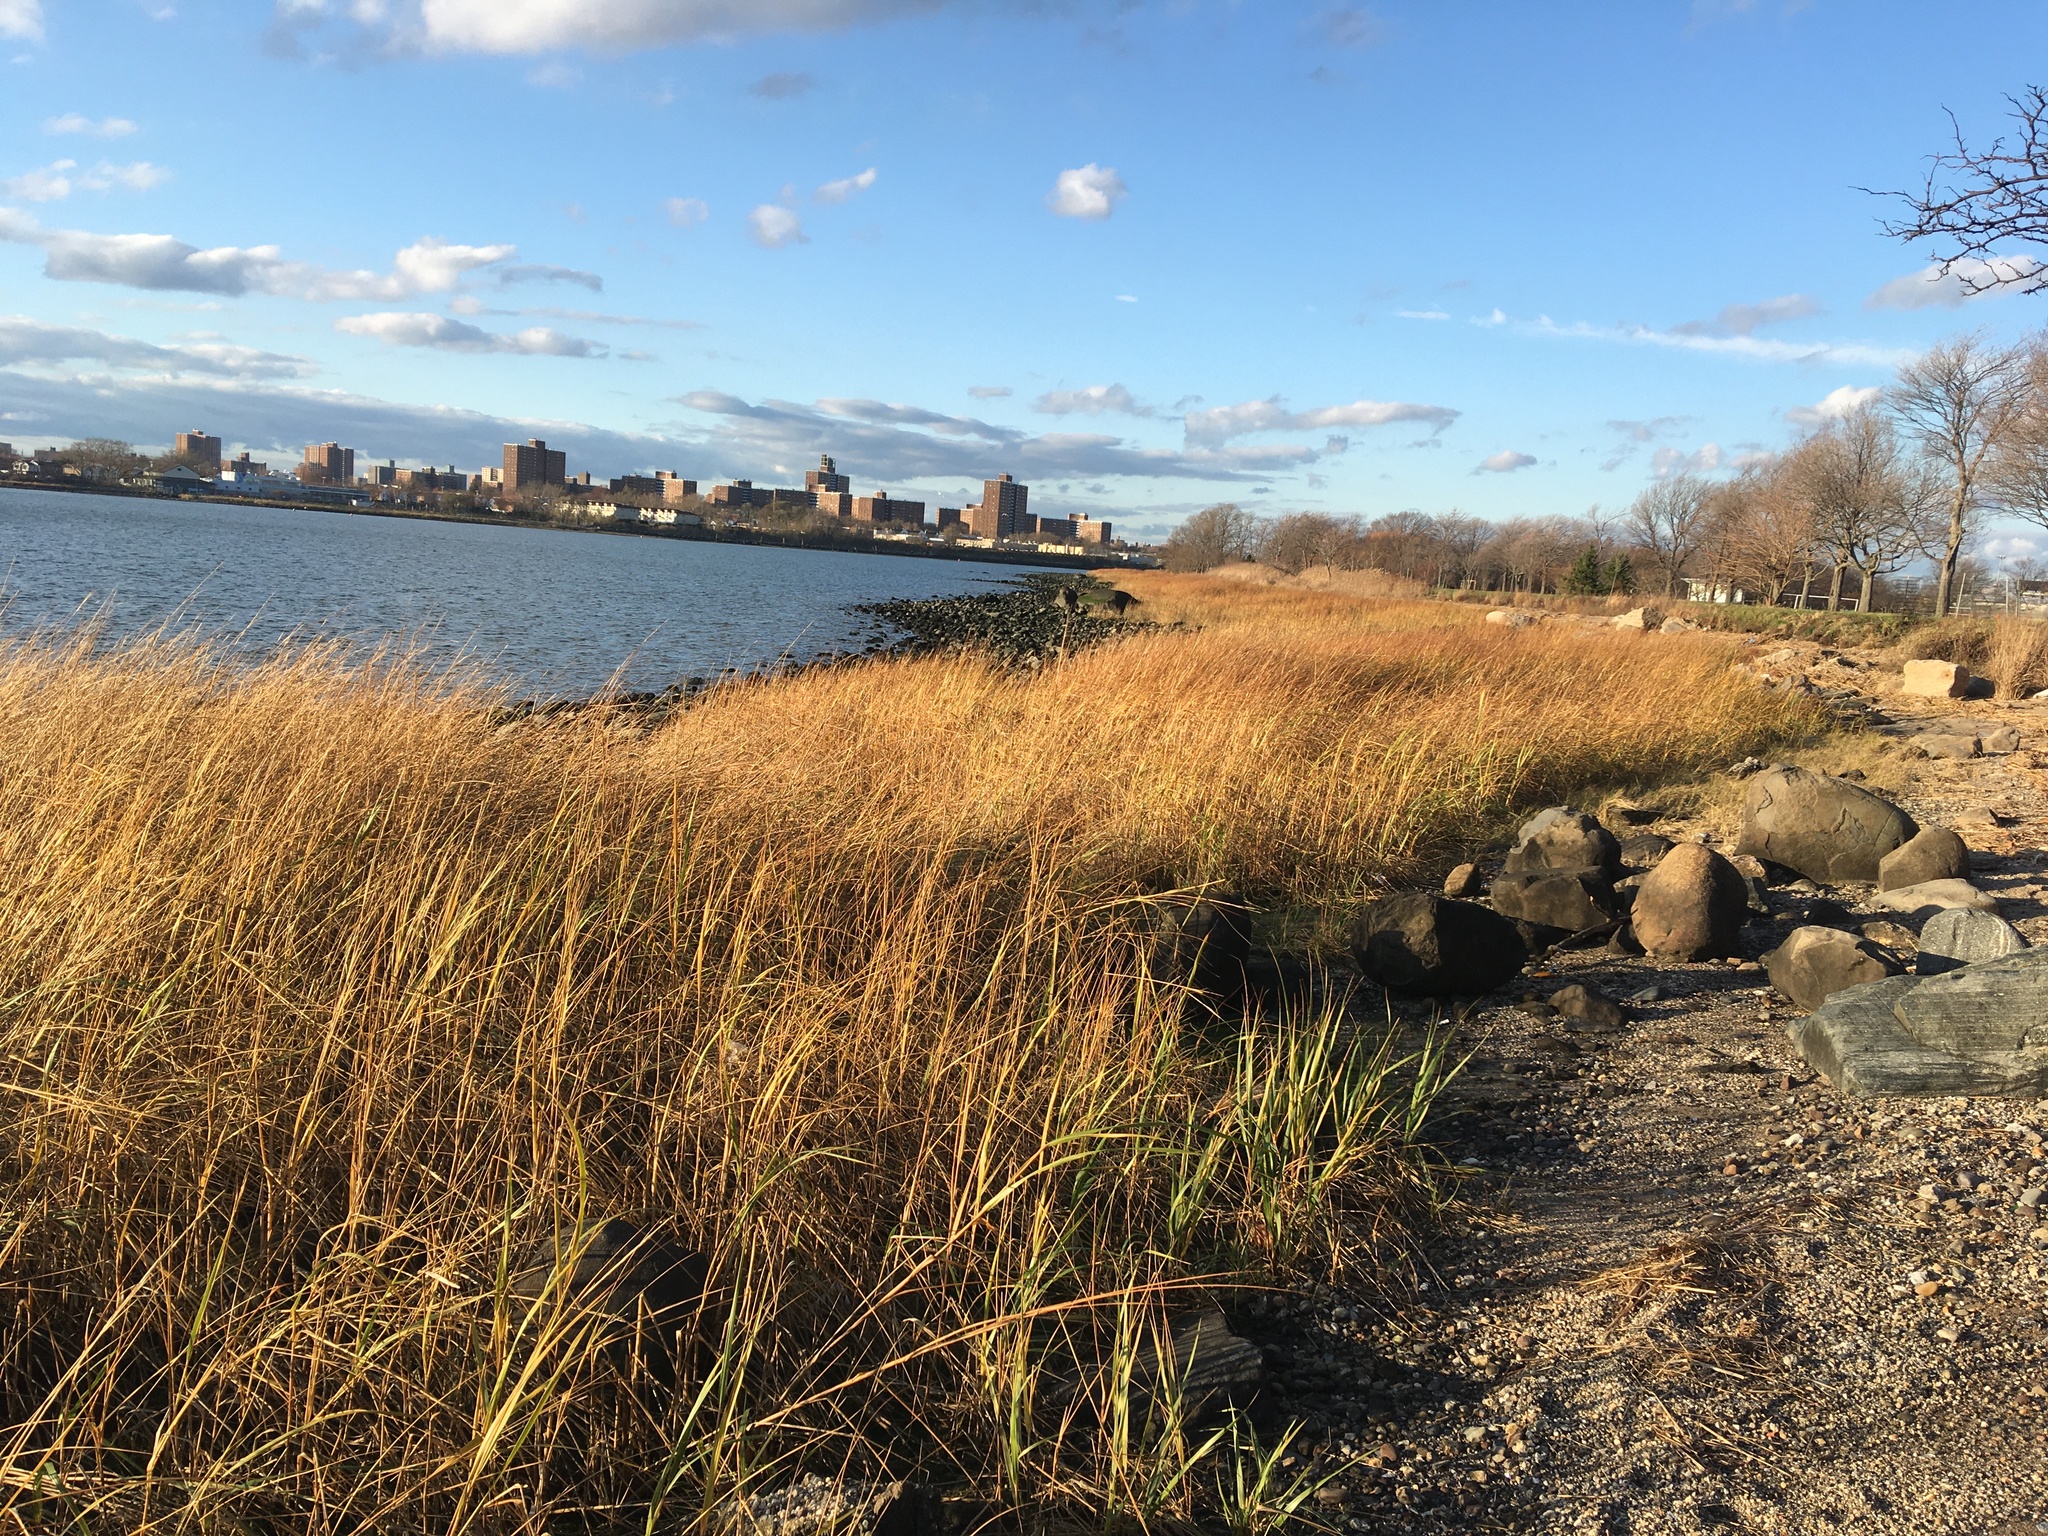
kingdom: Plantae
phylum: Tracheophyta
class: Liliopsida
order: Poales
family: Poaceae
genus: Sporobolus
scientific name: Sporobolus alterniflorus
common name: Atlantic cordgrass
